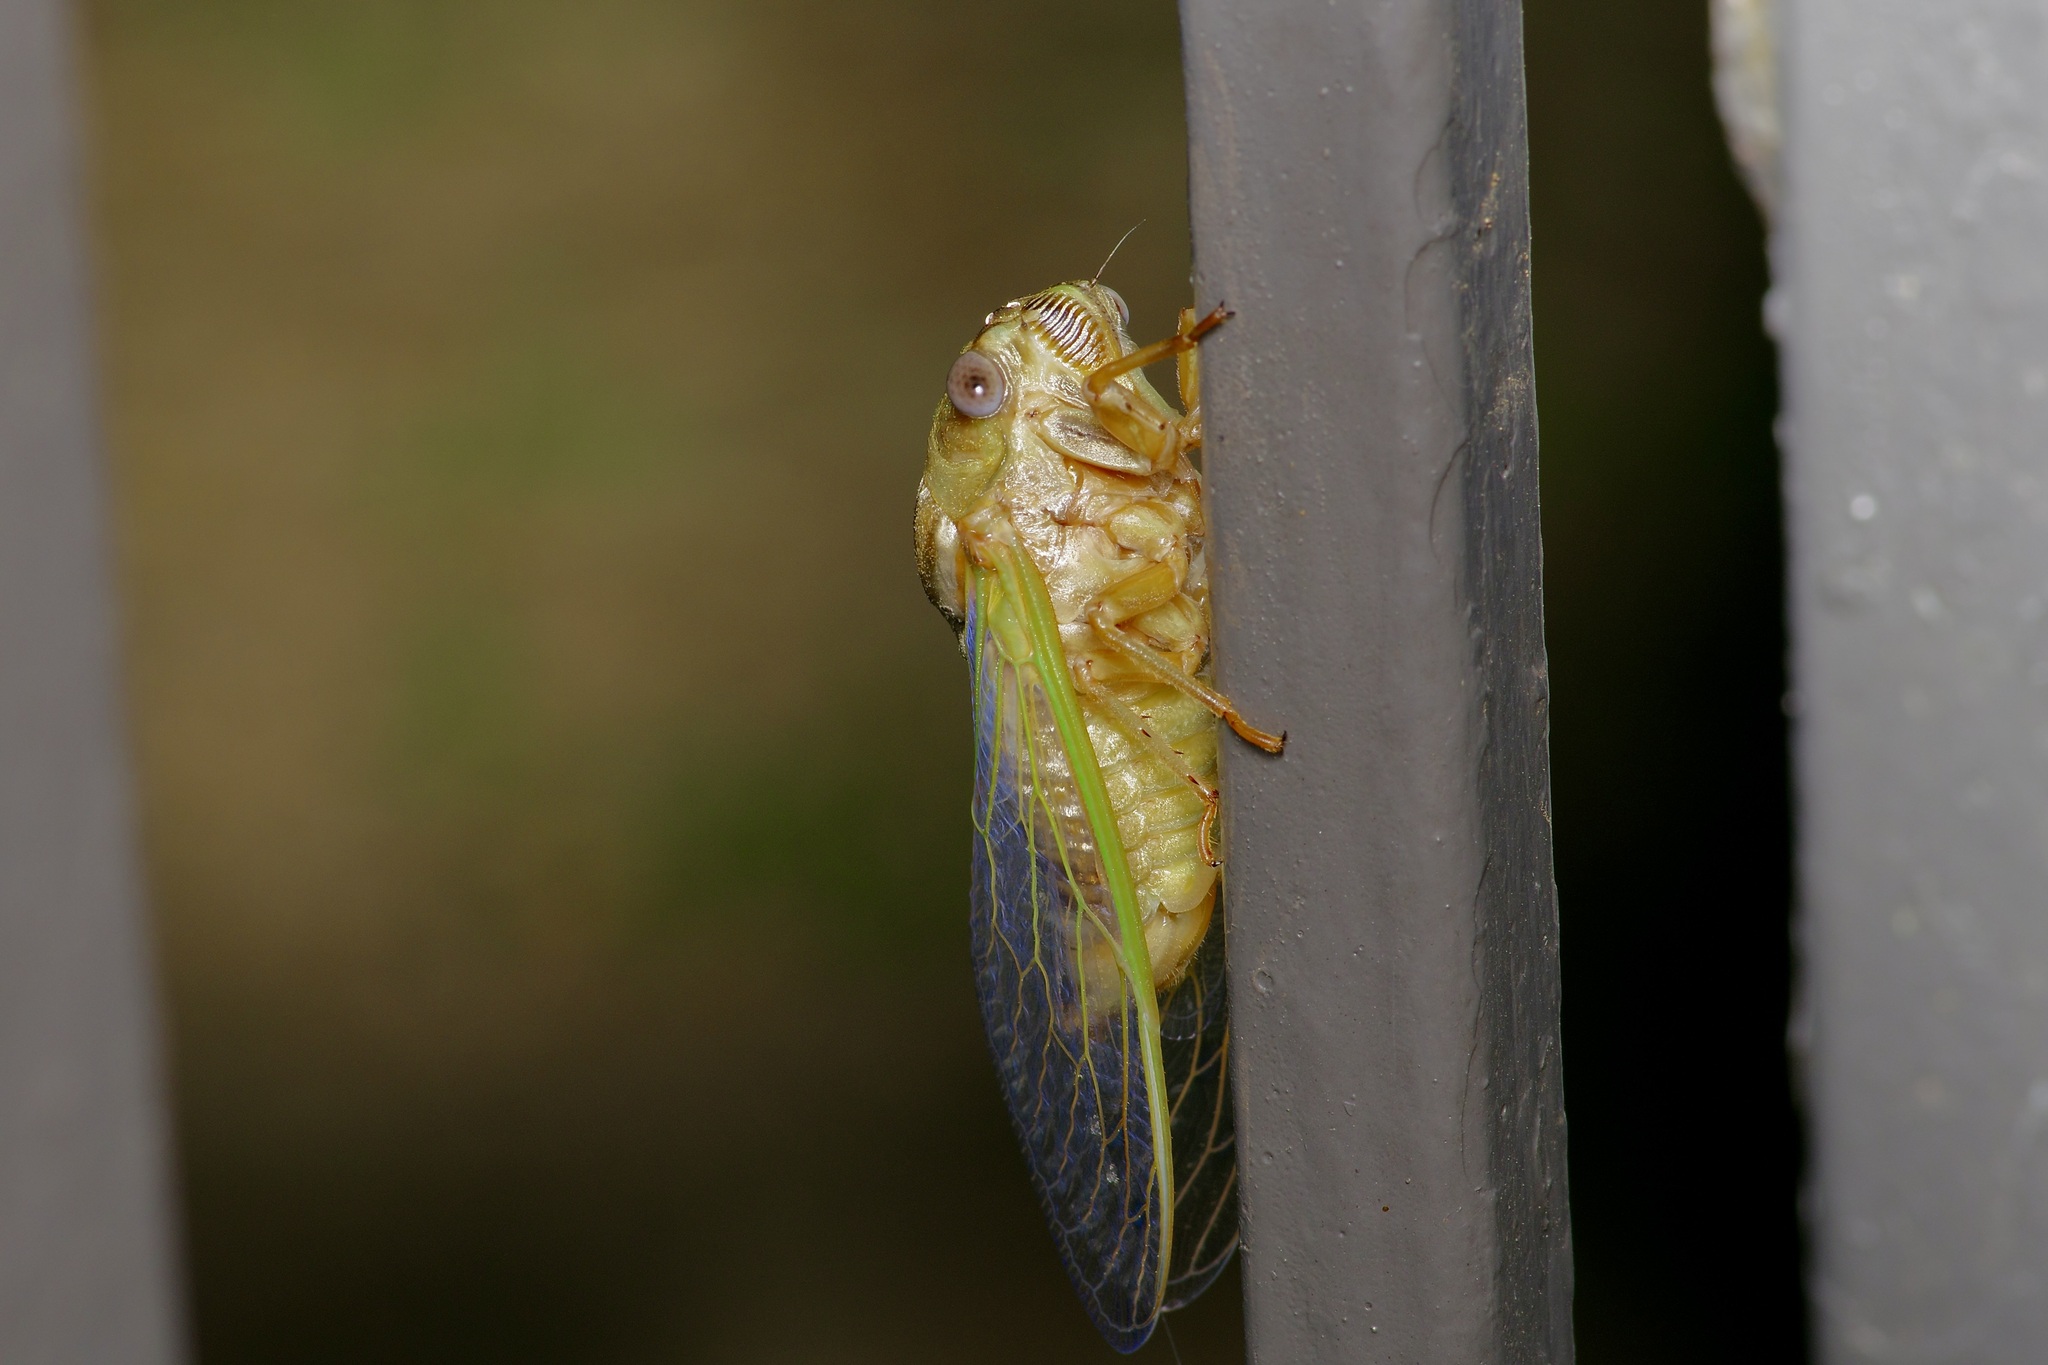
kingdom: Animalia
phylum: Arthropoda
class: Insecta
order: Hemiptera
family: Cicadidae
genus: Megatibicen
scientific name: Megatibicen resh
